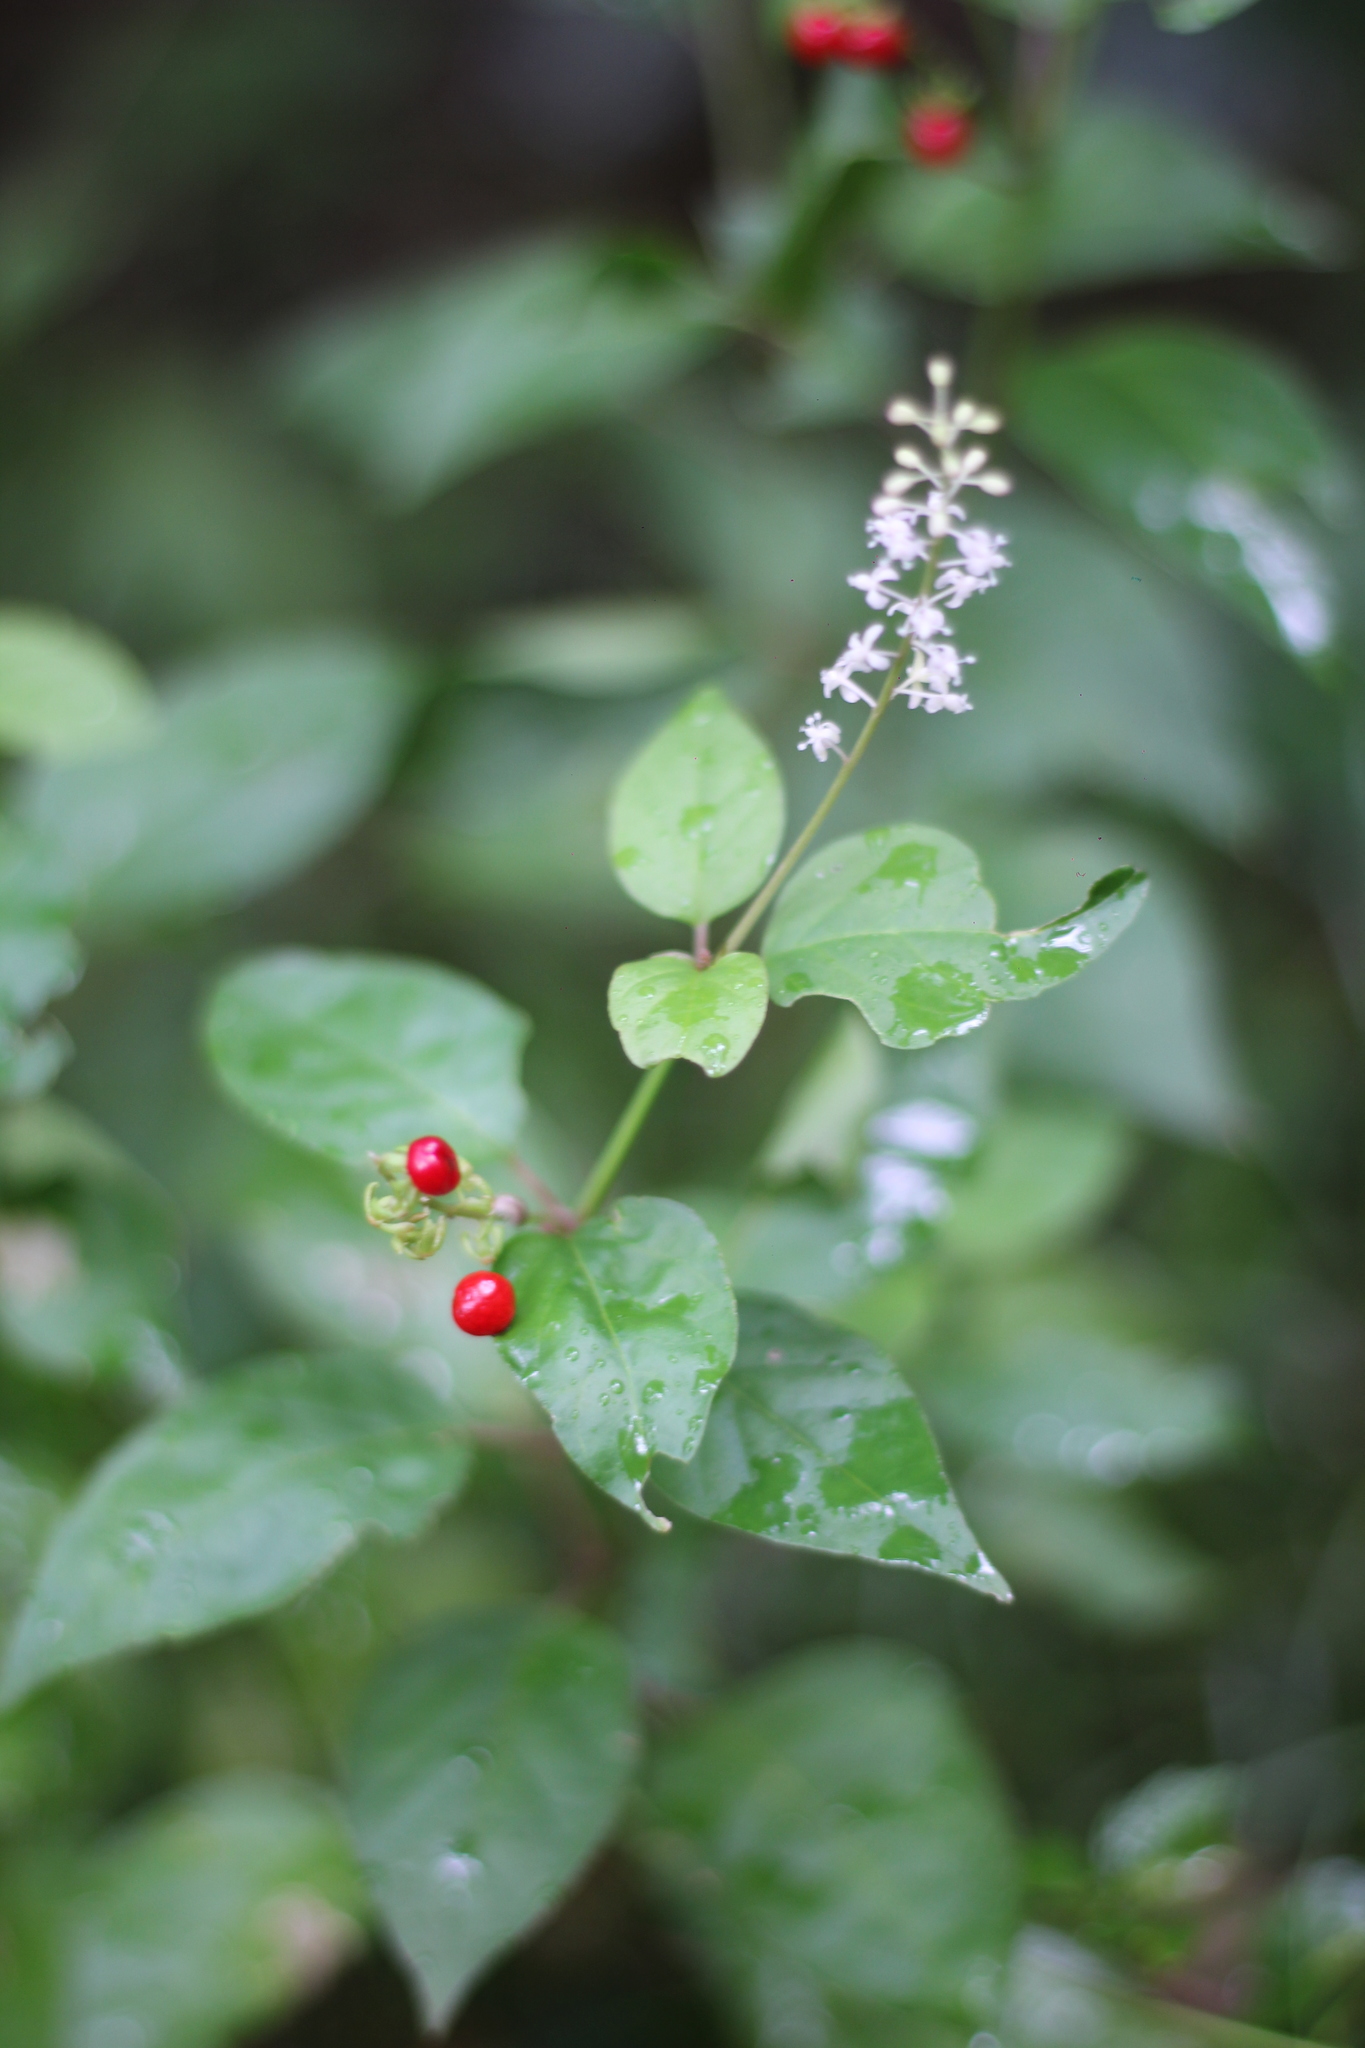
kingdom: Plantae
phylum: Tracheophyta
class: Magnoliopsida
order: Caryophyllales
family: Phytolaccaceae
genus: Rivina
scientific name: Rivina humilis
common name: Rougeplant
